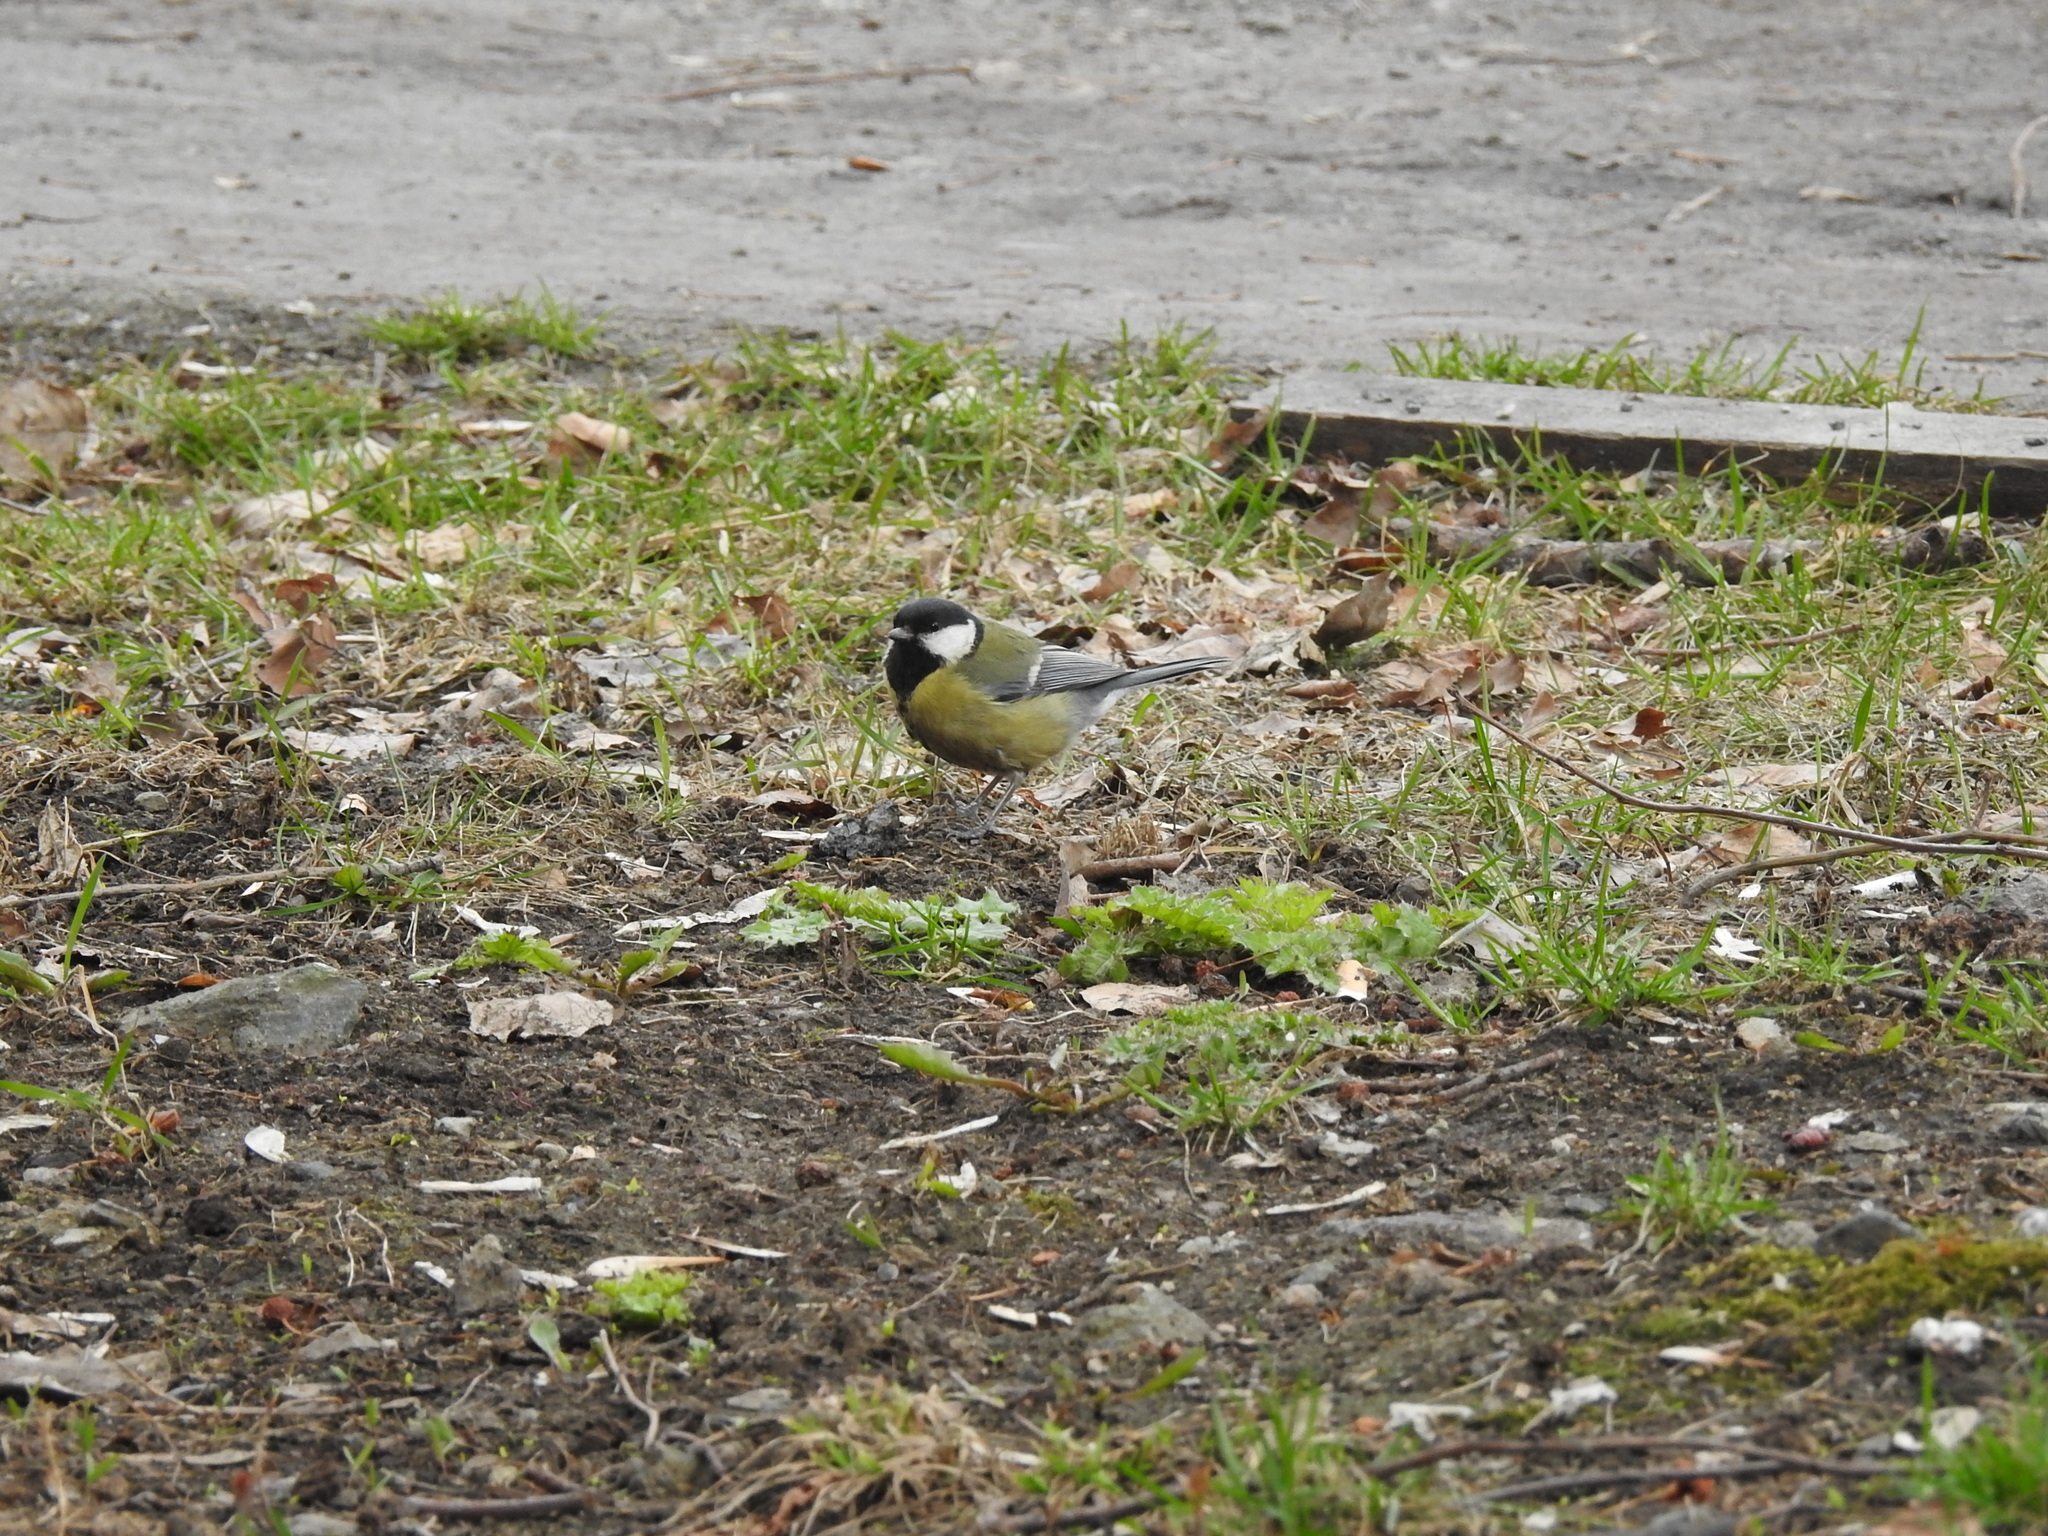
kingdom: Animalia
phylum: Chordata
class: Aves
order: Passeriformes
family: Paridae
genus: Parus
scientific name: Parus major
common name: Great tit
